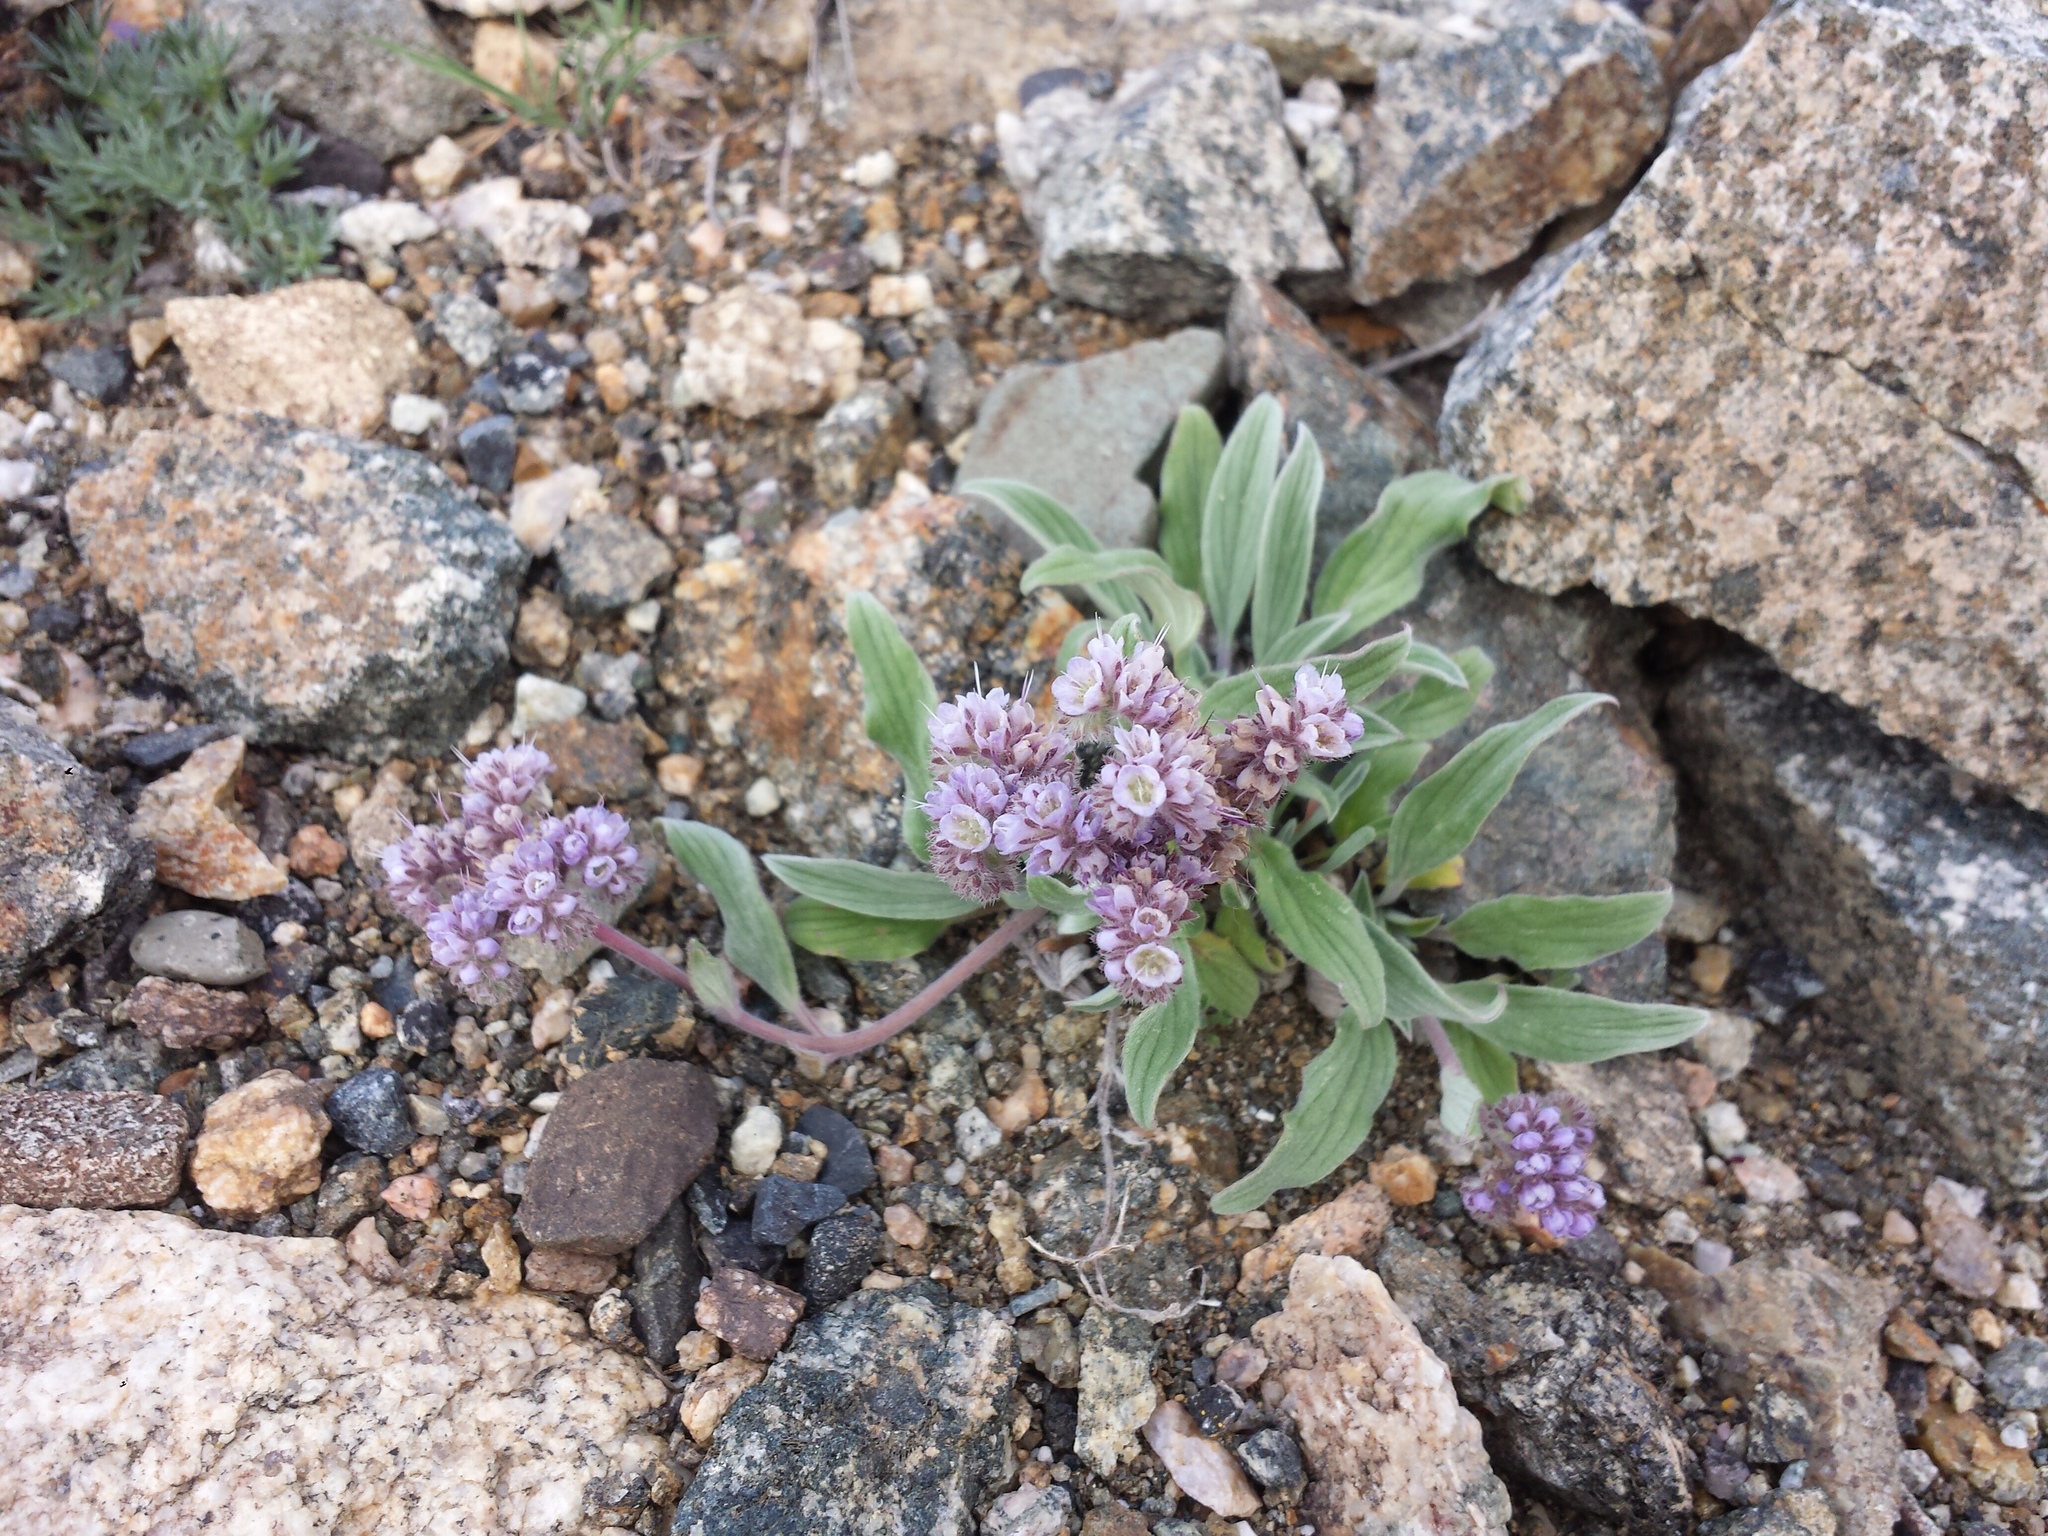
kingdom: Plantae
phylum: Tracheophyta
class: Magnoliopsida
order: Boraginales
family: Hydrophyllaceae
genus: Phacelia
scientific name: Phacelia hastata
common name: Silver-leaved phacelia
